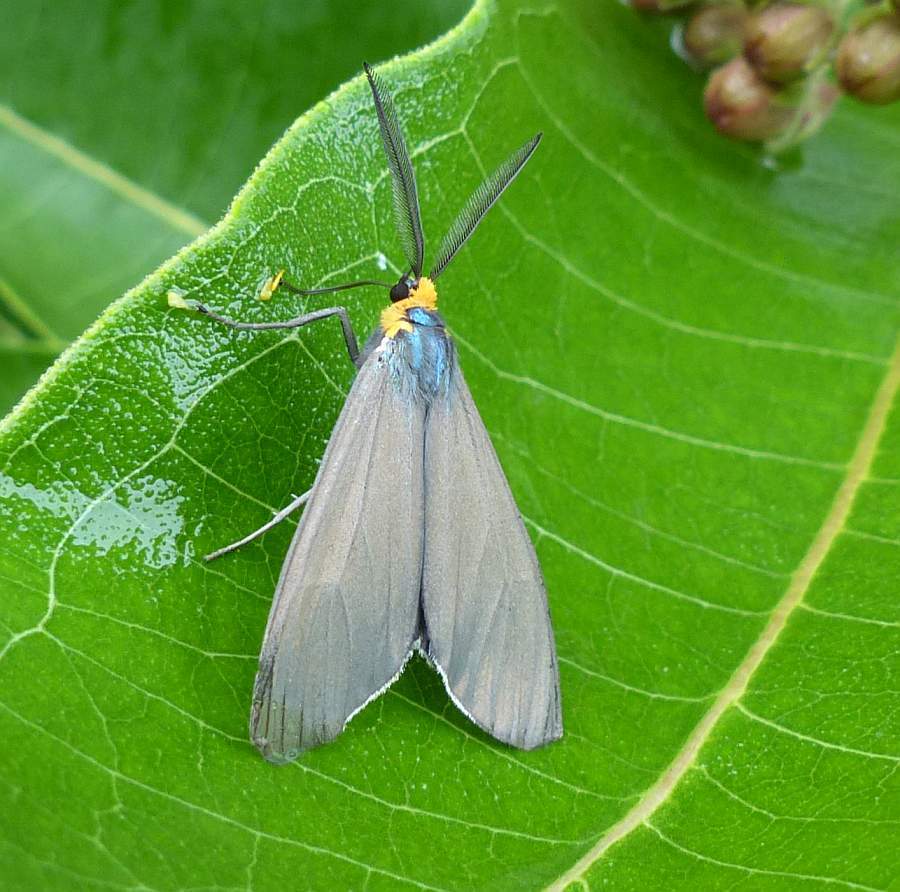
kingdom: Animalia
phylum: Arthropoda
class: Insecta
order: Lepidoptera
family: Erebidae
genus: Ctenucha
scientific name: Ctenucha virginica
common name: Virginia ctenucha moth
